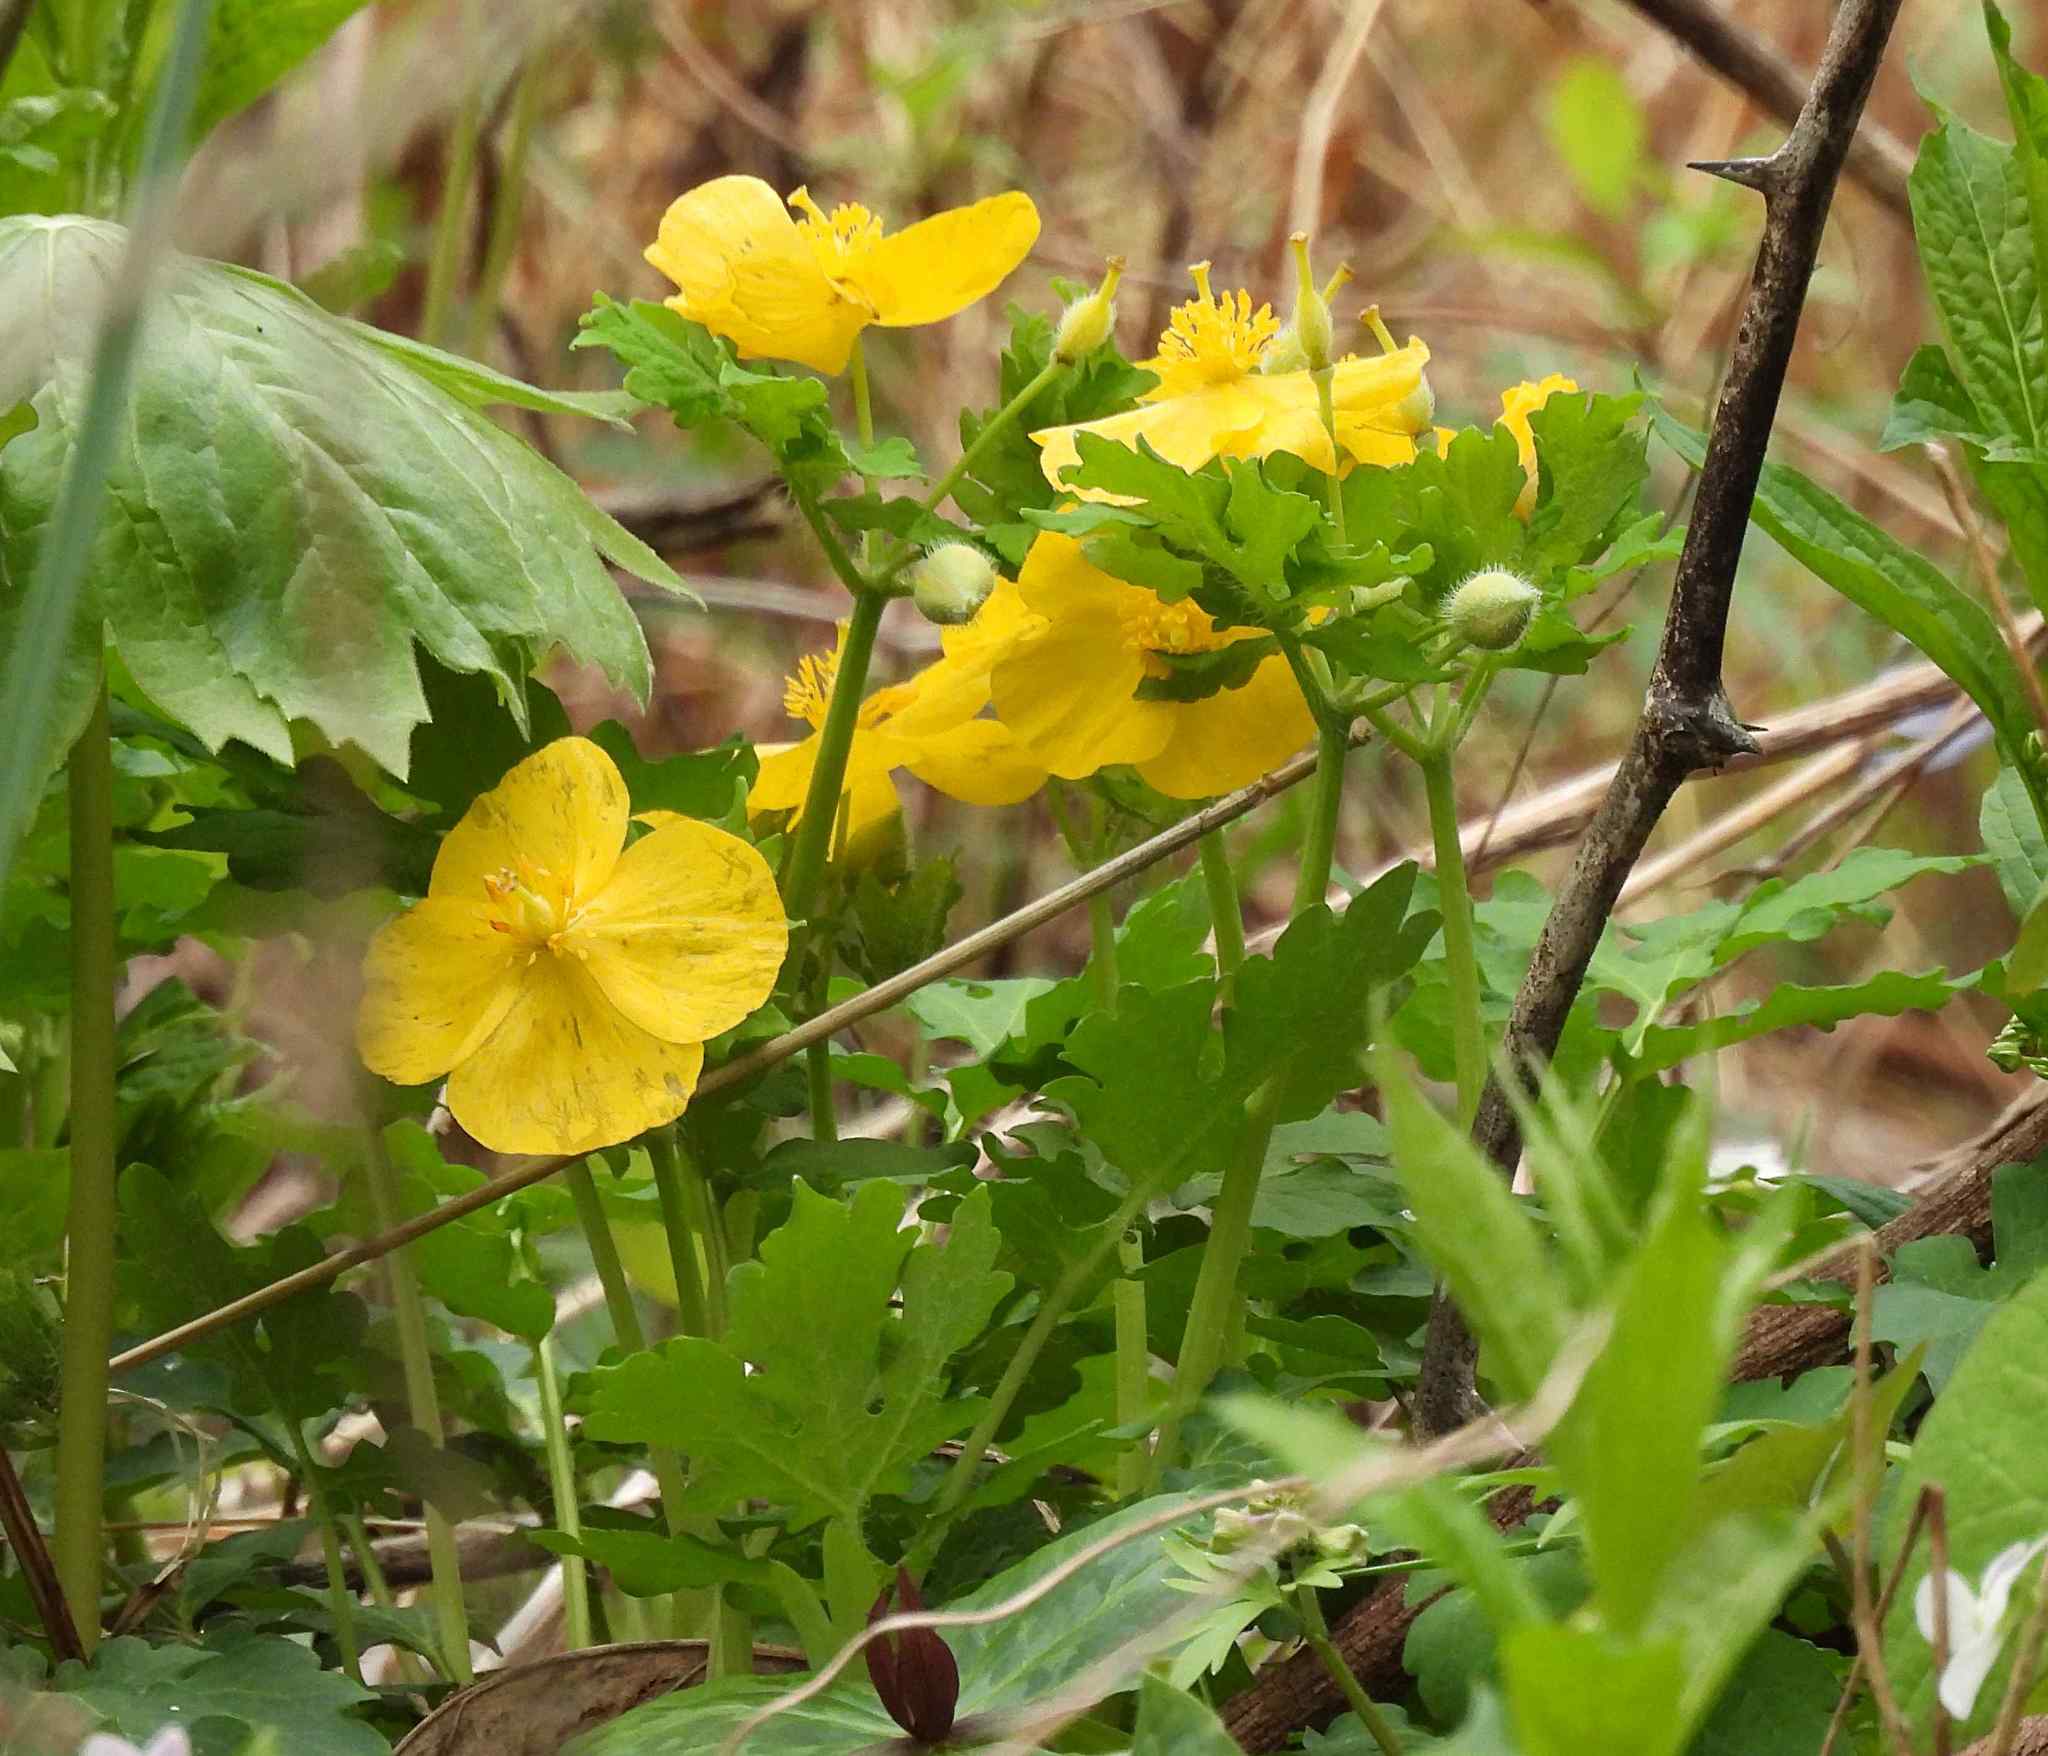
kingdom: Plantae
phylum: Tracheophyta
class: Magnoliopsida
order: Ranunculales
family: Papaveraceae
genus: Stylophorum
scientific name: Stylophorum diphyllum
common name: Celandine poppy
